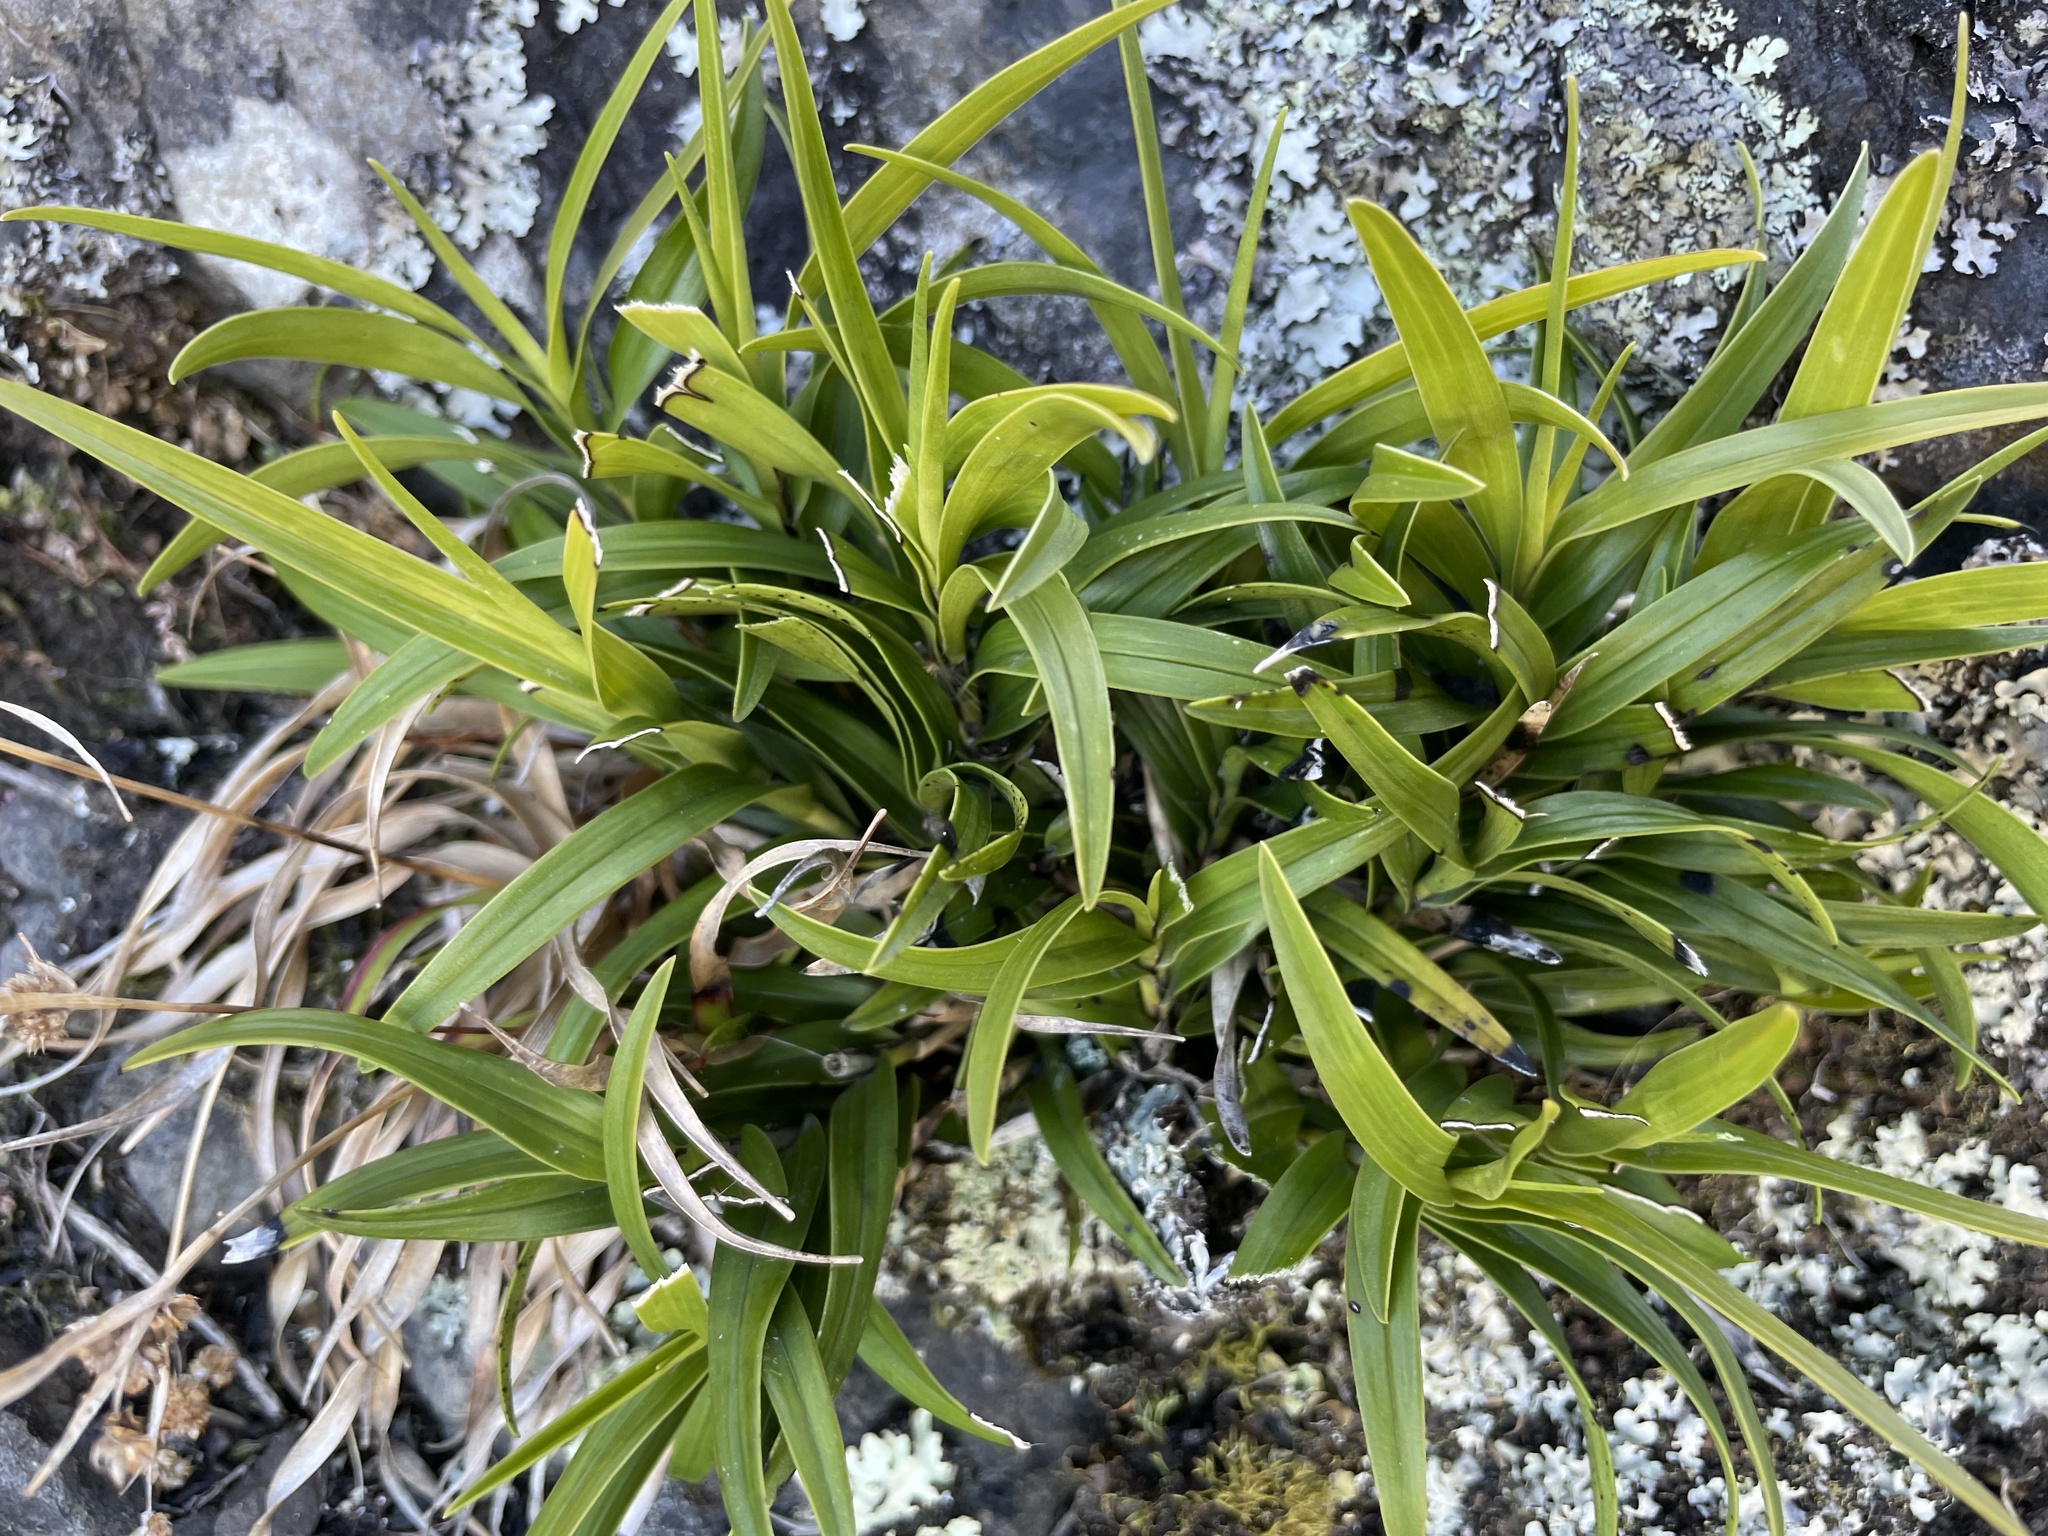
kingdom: Plantae
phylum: Tracheophyta
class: Liliopsida
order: Asparagales
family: Orchidaceae
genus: Earina
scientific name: Earina autumnalis
